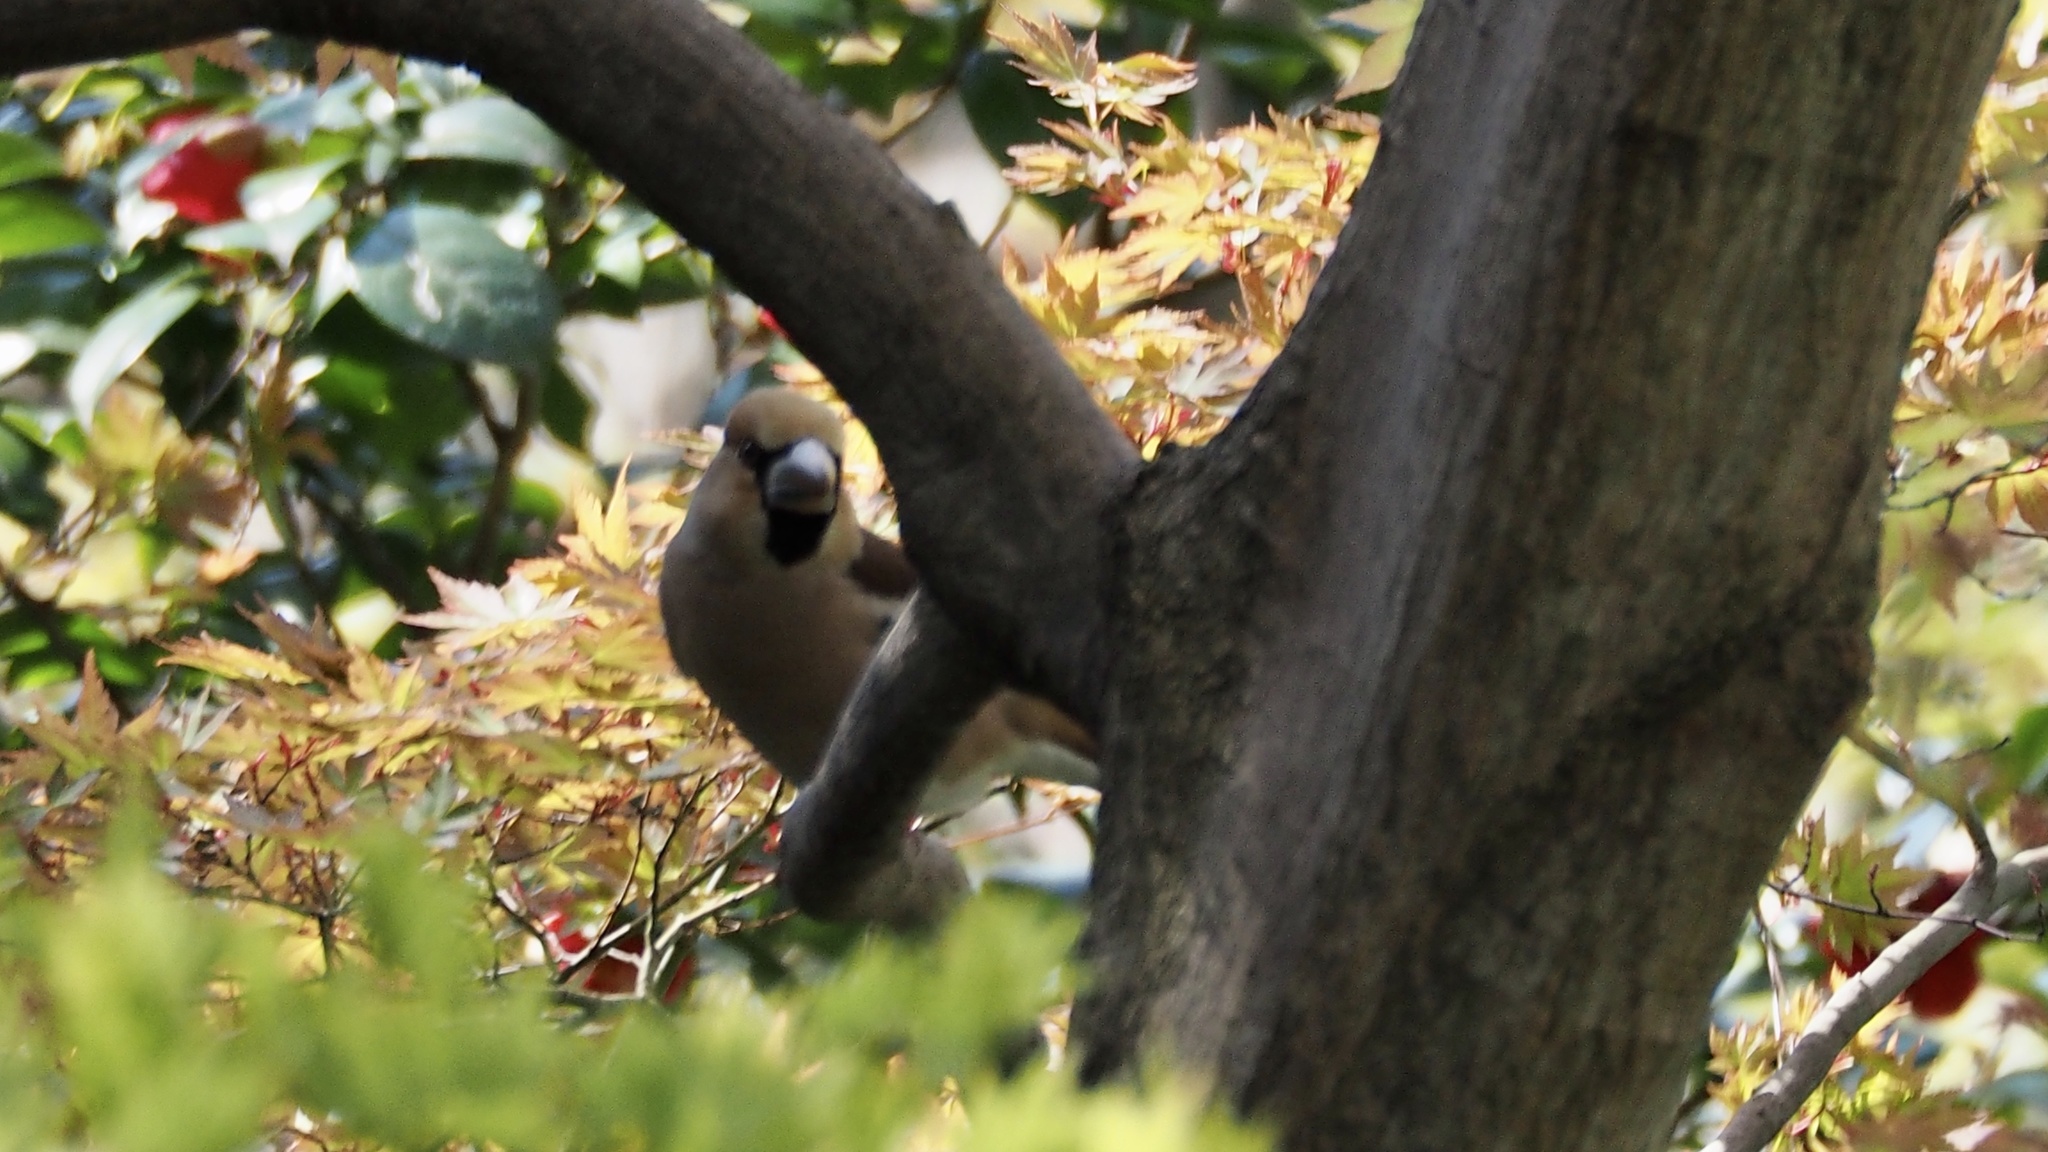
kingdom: Animalia
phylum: Chordata
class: Aves
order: Passeriformes
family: Fringillidae
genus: Coccothraustes
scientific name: Coccothraustes coccothraustes
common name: Hawfinch
